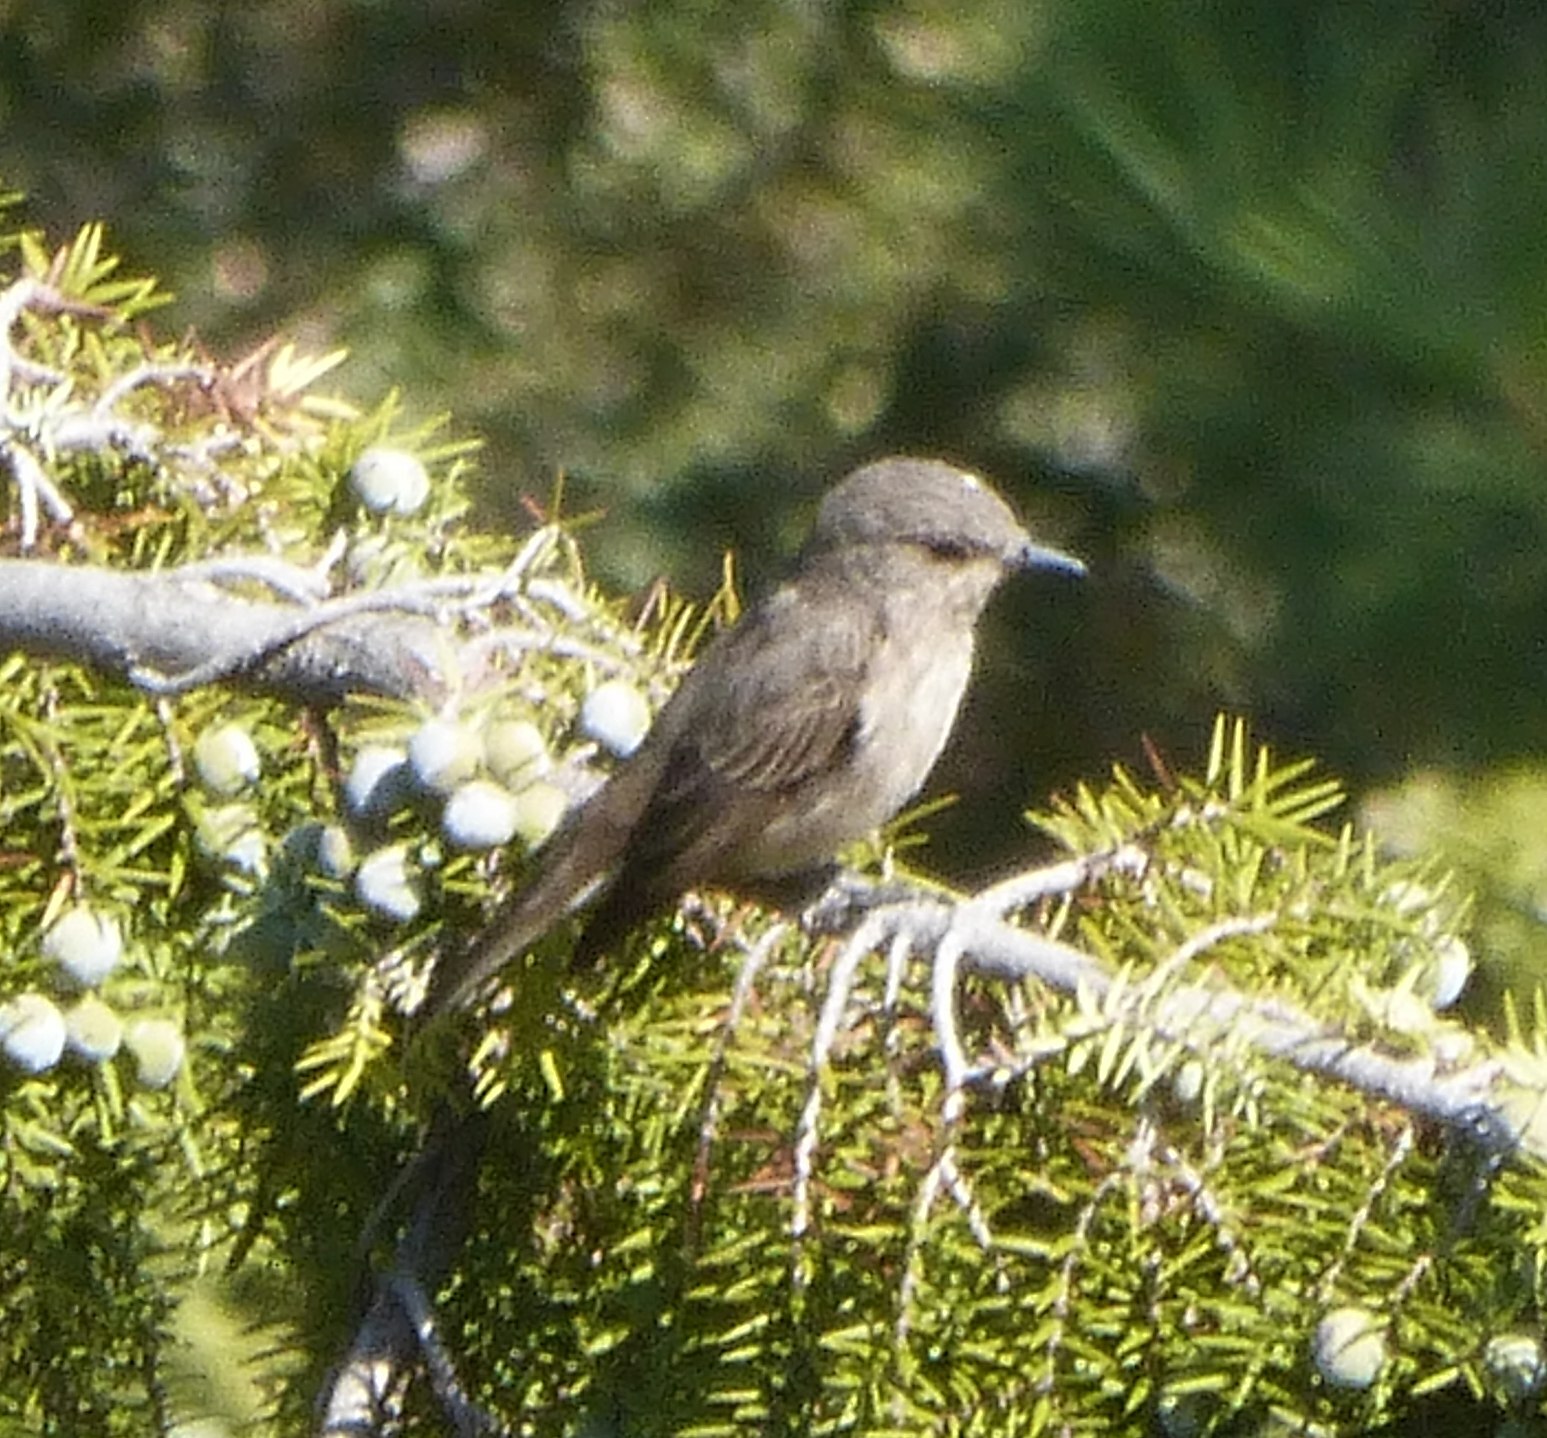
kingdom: Animalia
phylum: Chordata
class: Aves
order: Passeriformes
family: Muscicapidae
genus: Muscicapa
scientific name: Muscicapa striata
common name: Spotted flycatcher
